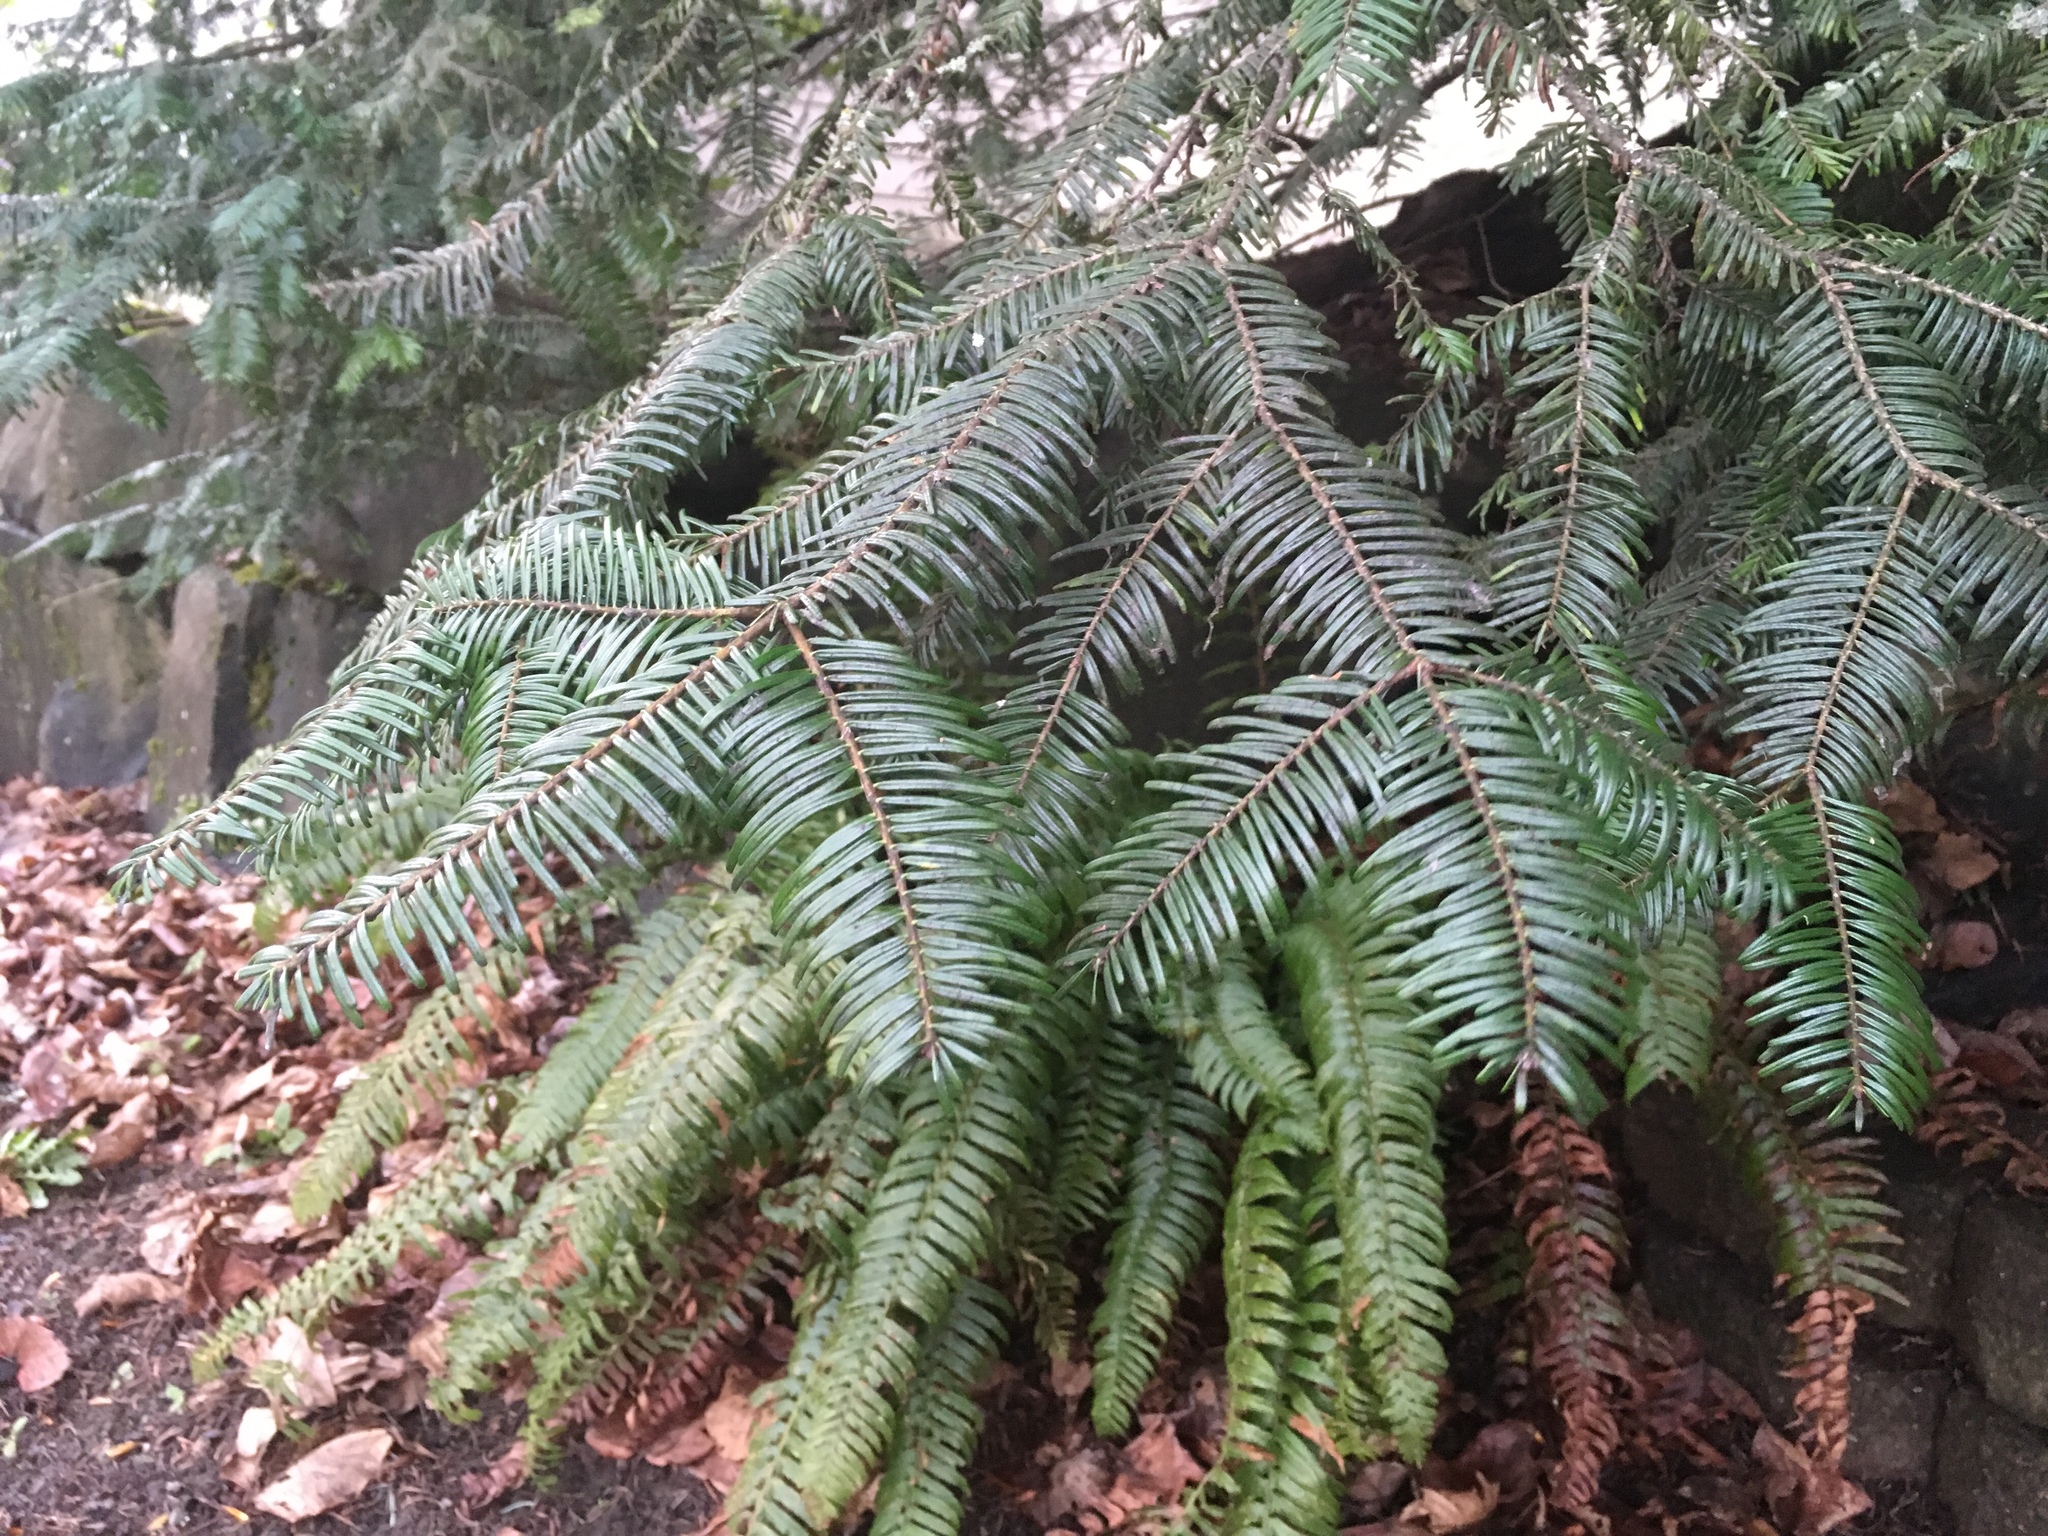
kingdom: Plantae
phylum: Tracheophyta
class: Pinopsida
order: Pinales
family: Pinaceae
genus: Abies
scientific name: Abies grandis
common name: Giant fir
